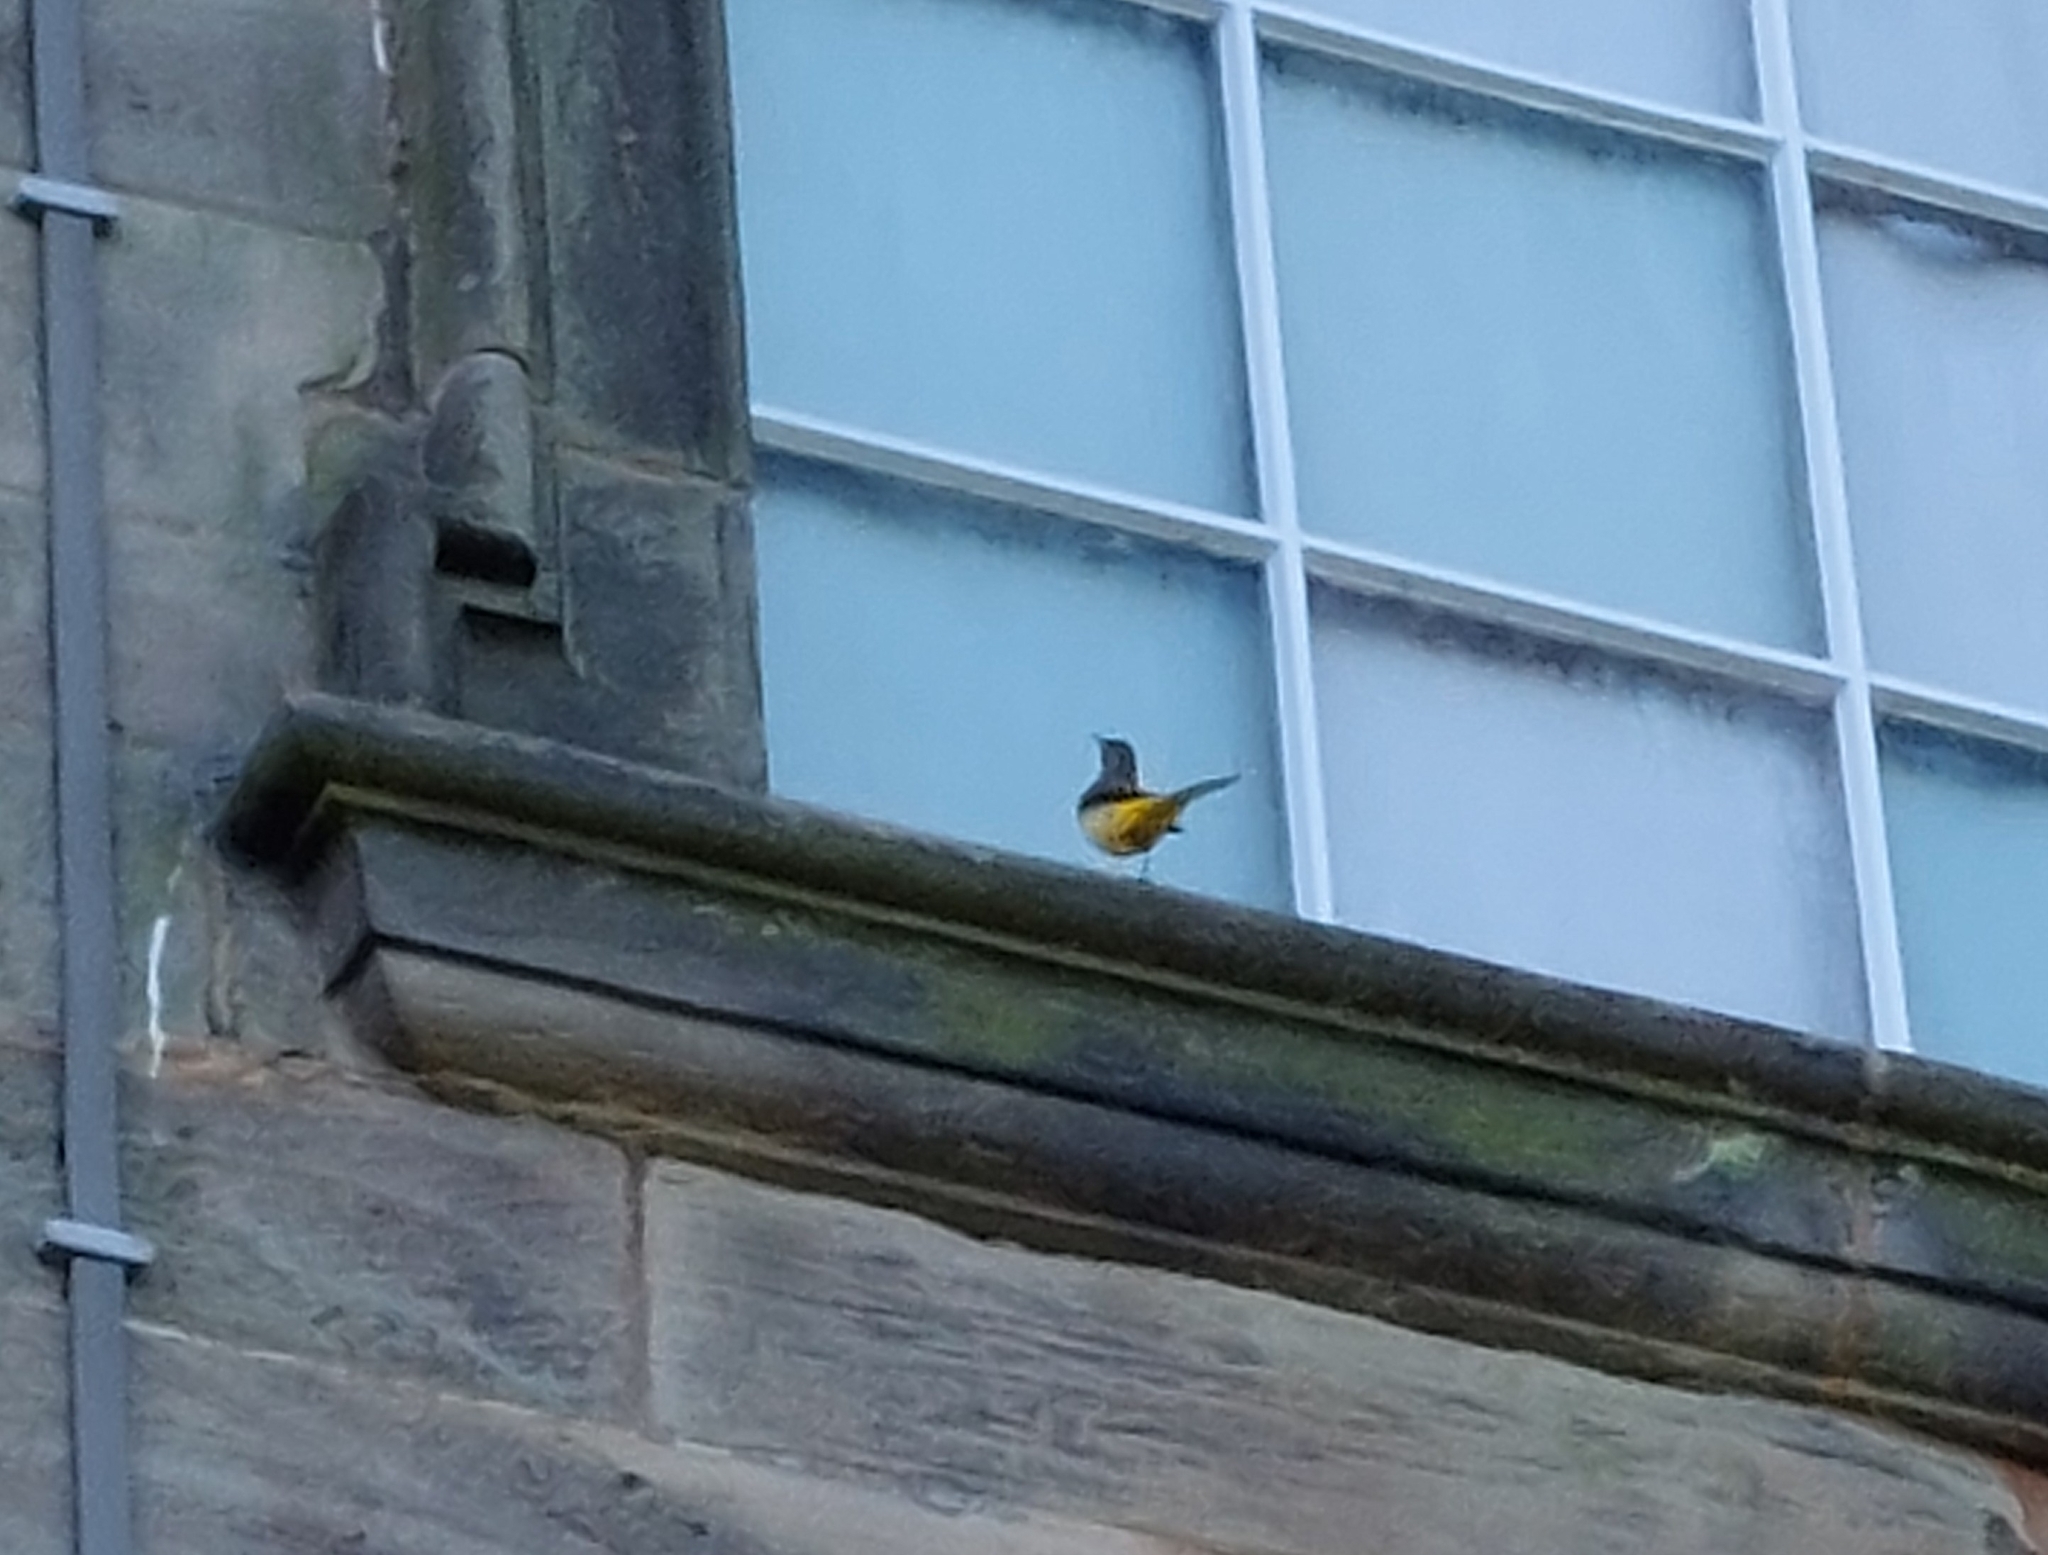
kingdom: Animalia
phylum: Chordata
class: Aves
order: Passeriformes
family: Motacillidae
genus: Motacilla
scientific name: Motacilla cinerea
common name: Grey wagtail
